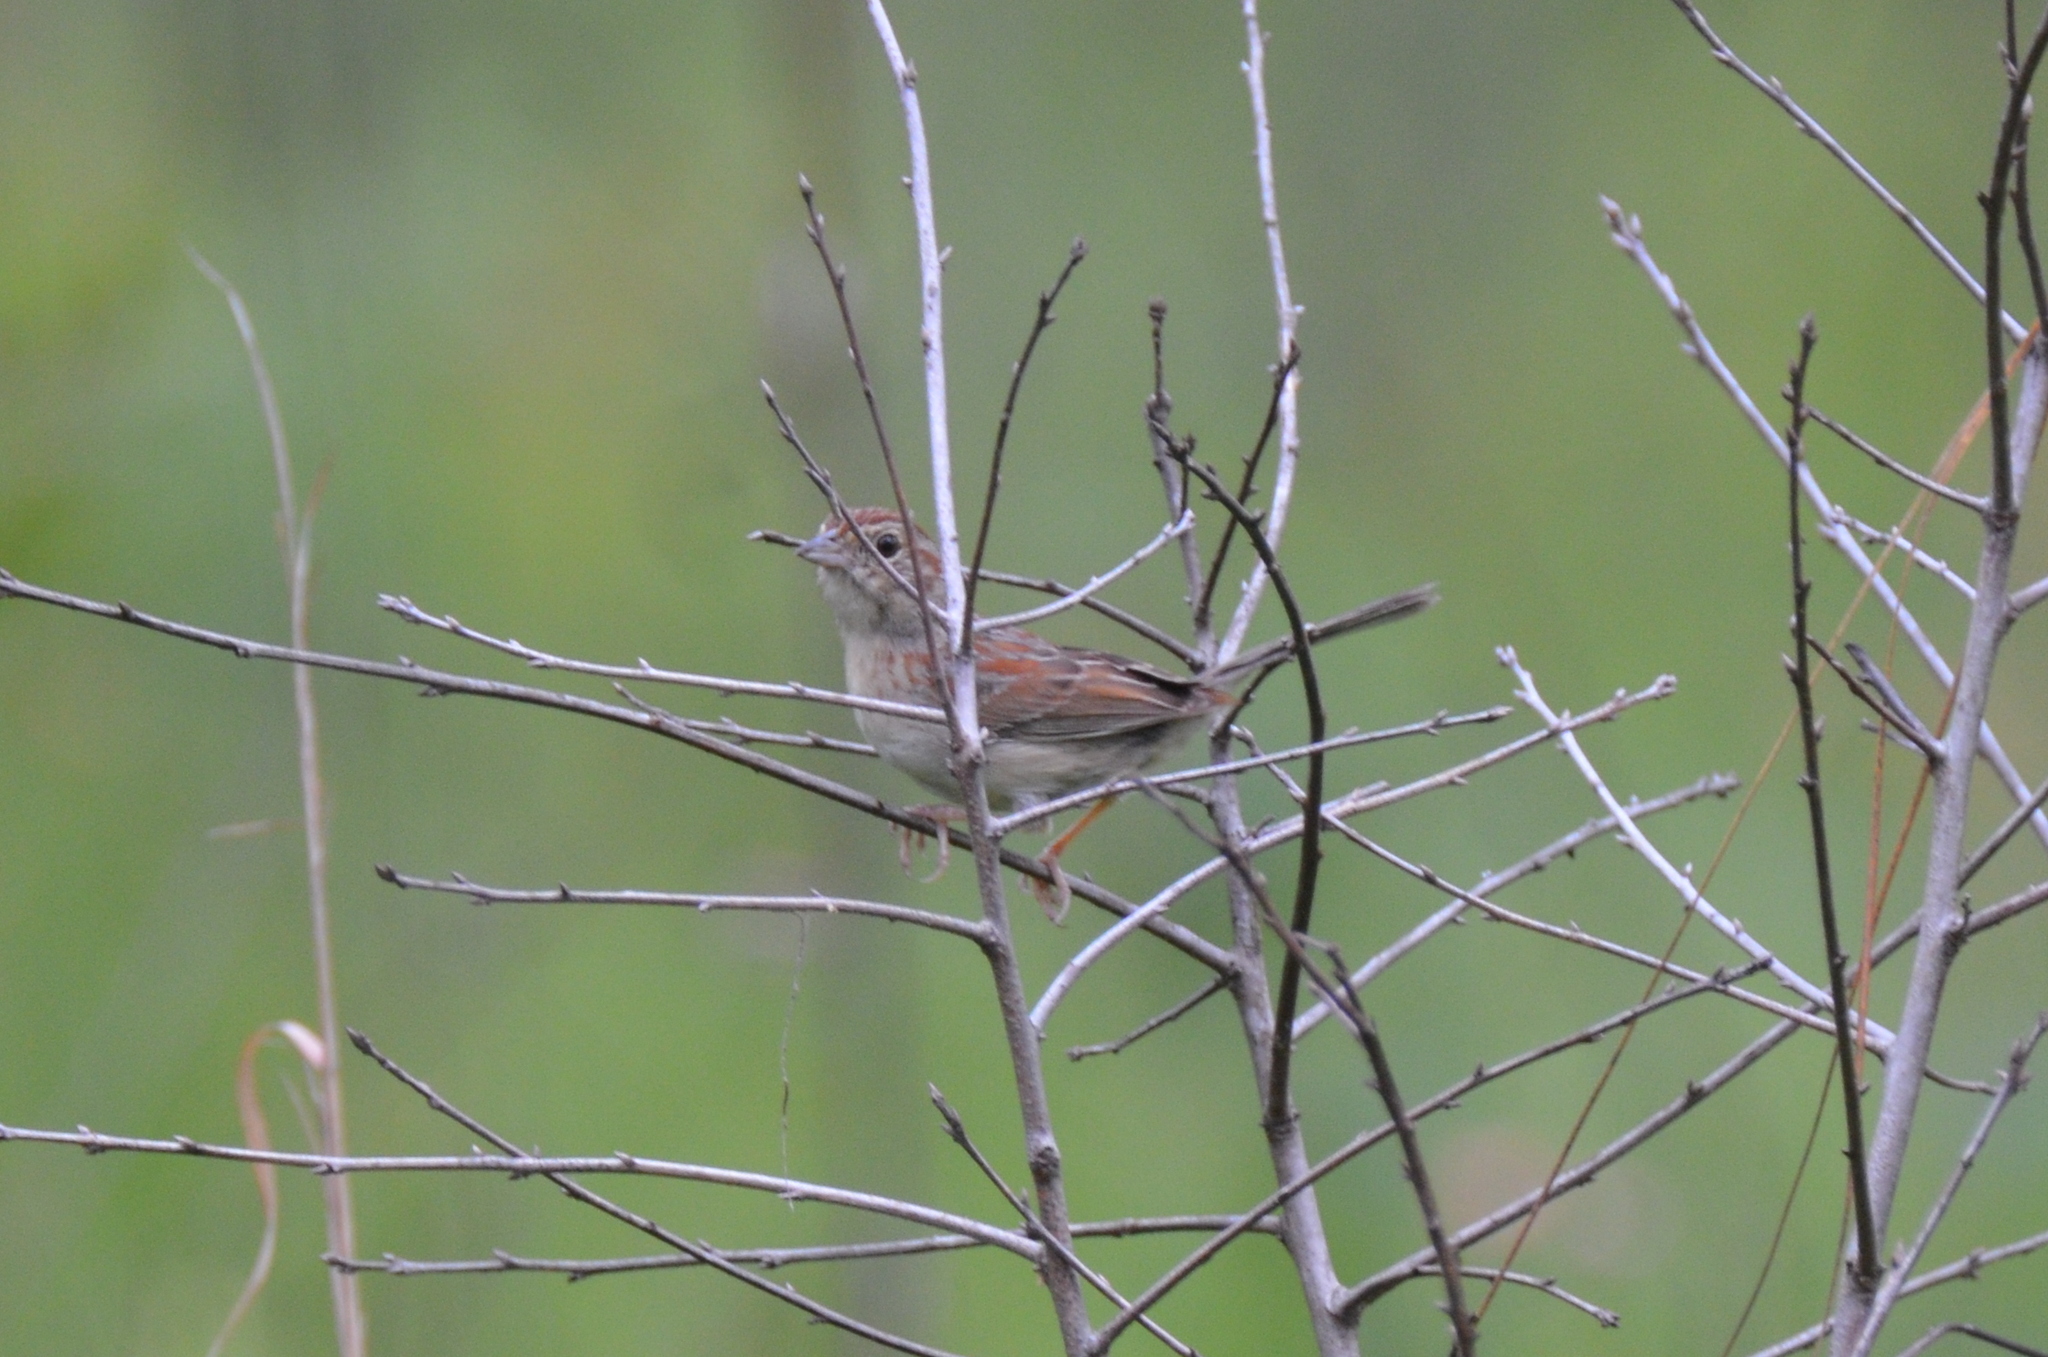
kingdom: Animalia
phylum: Chordata
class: Aves
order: Passeriformes
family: Passerellidae
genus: Peucaea
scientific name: Peucaea aestivalis
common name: Bachman's sparrow
